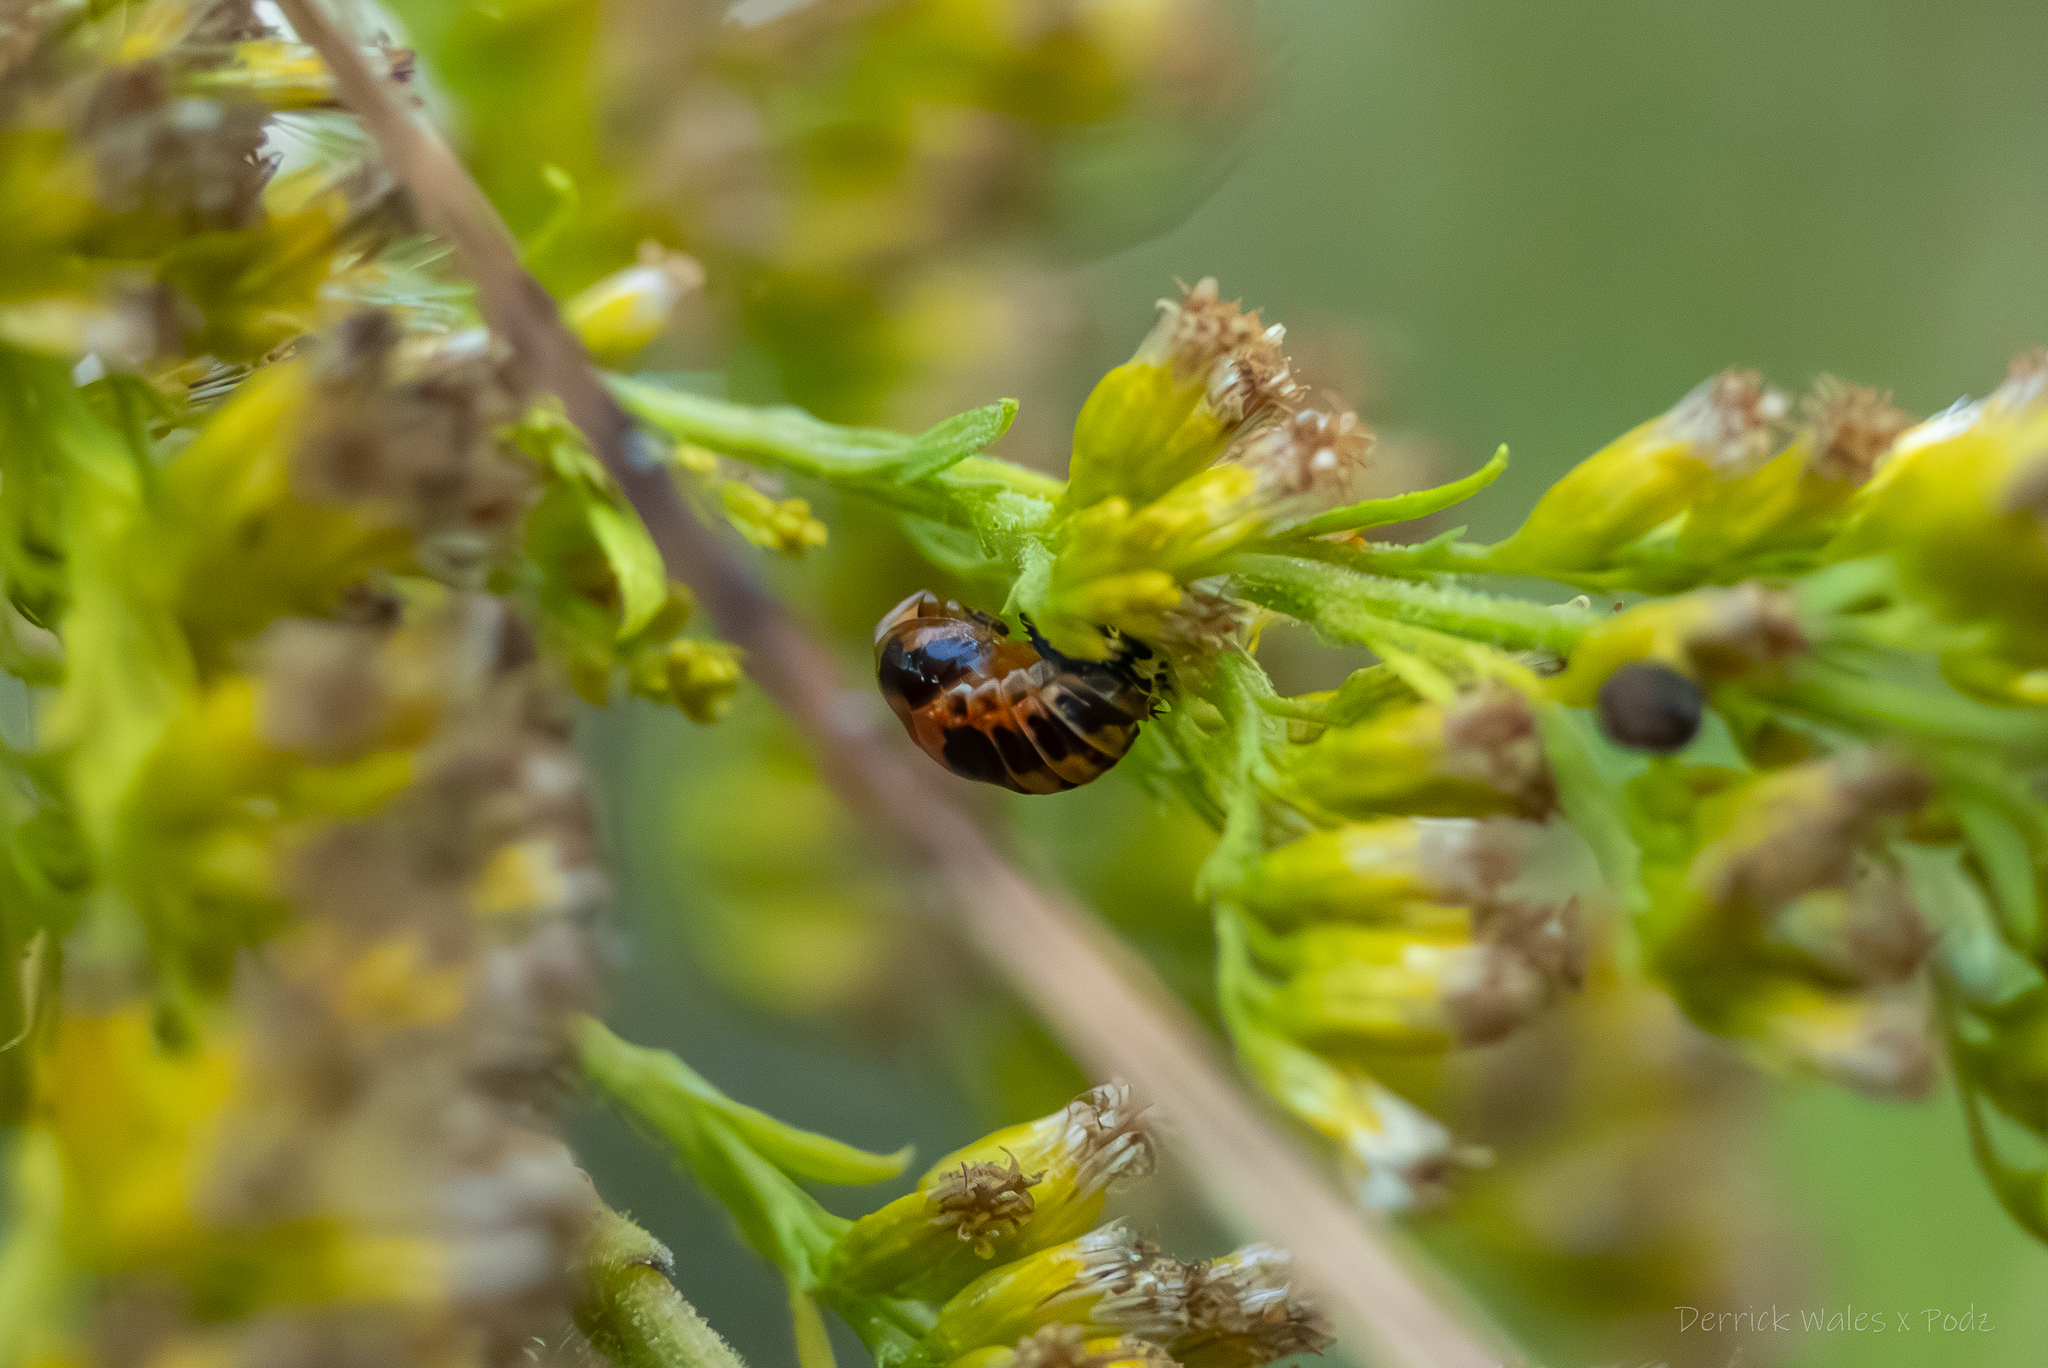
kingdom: Animalia
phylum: Arthropoda
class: Insecta
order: Coleoptera
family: Coccinellidae
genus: Harmonia
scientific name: Harmonia axyridis
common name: Harlequin ladybird
